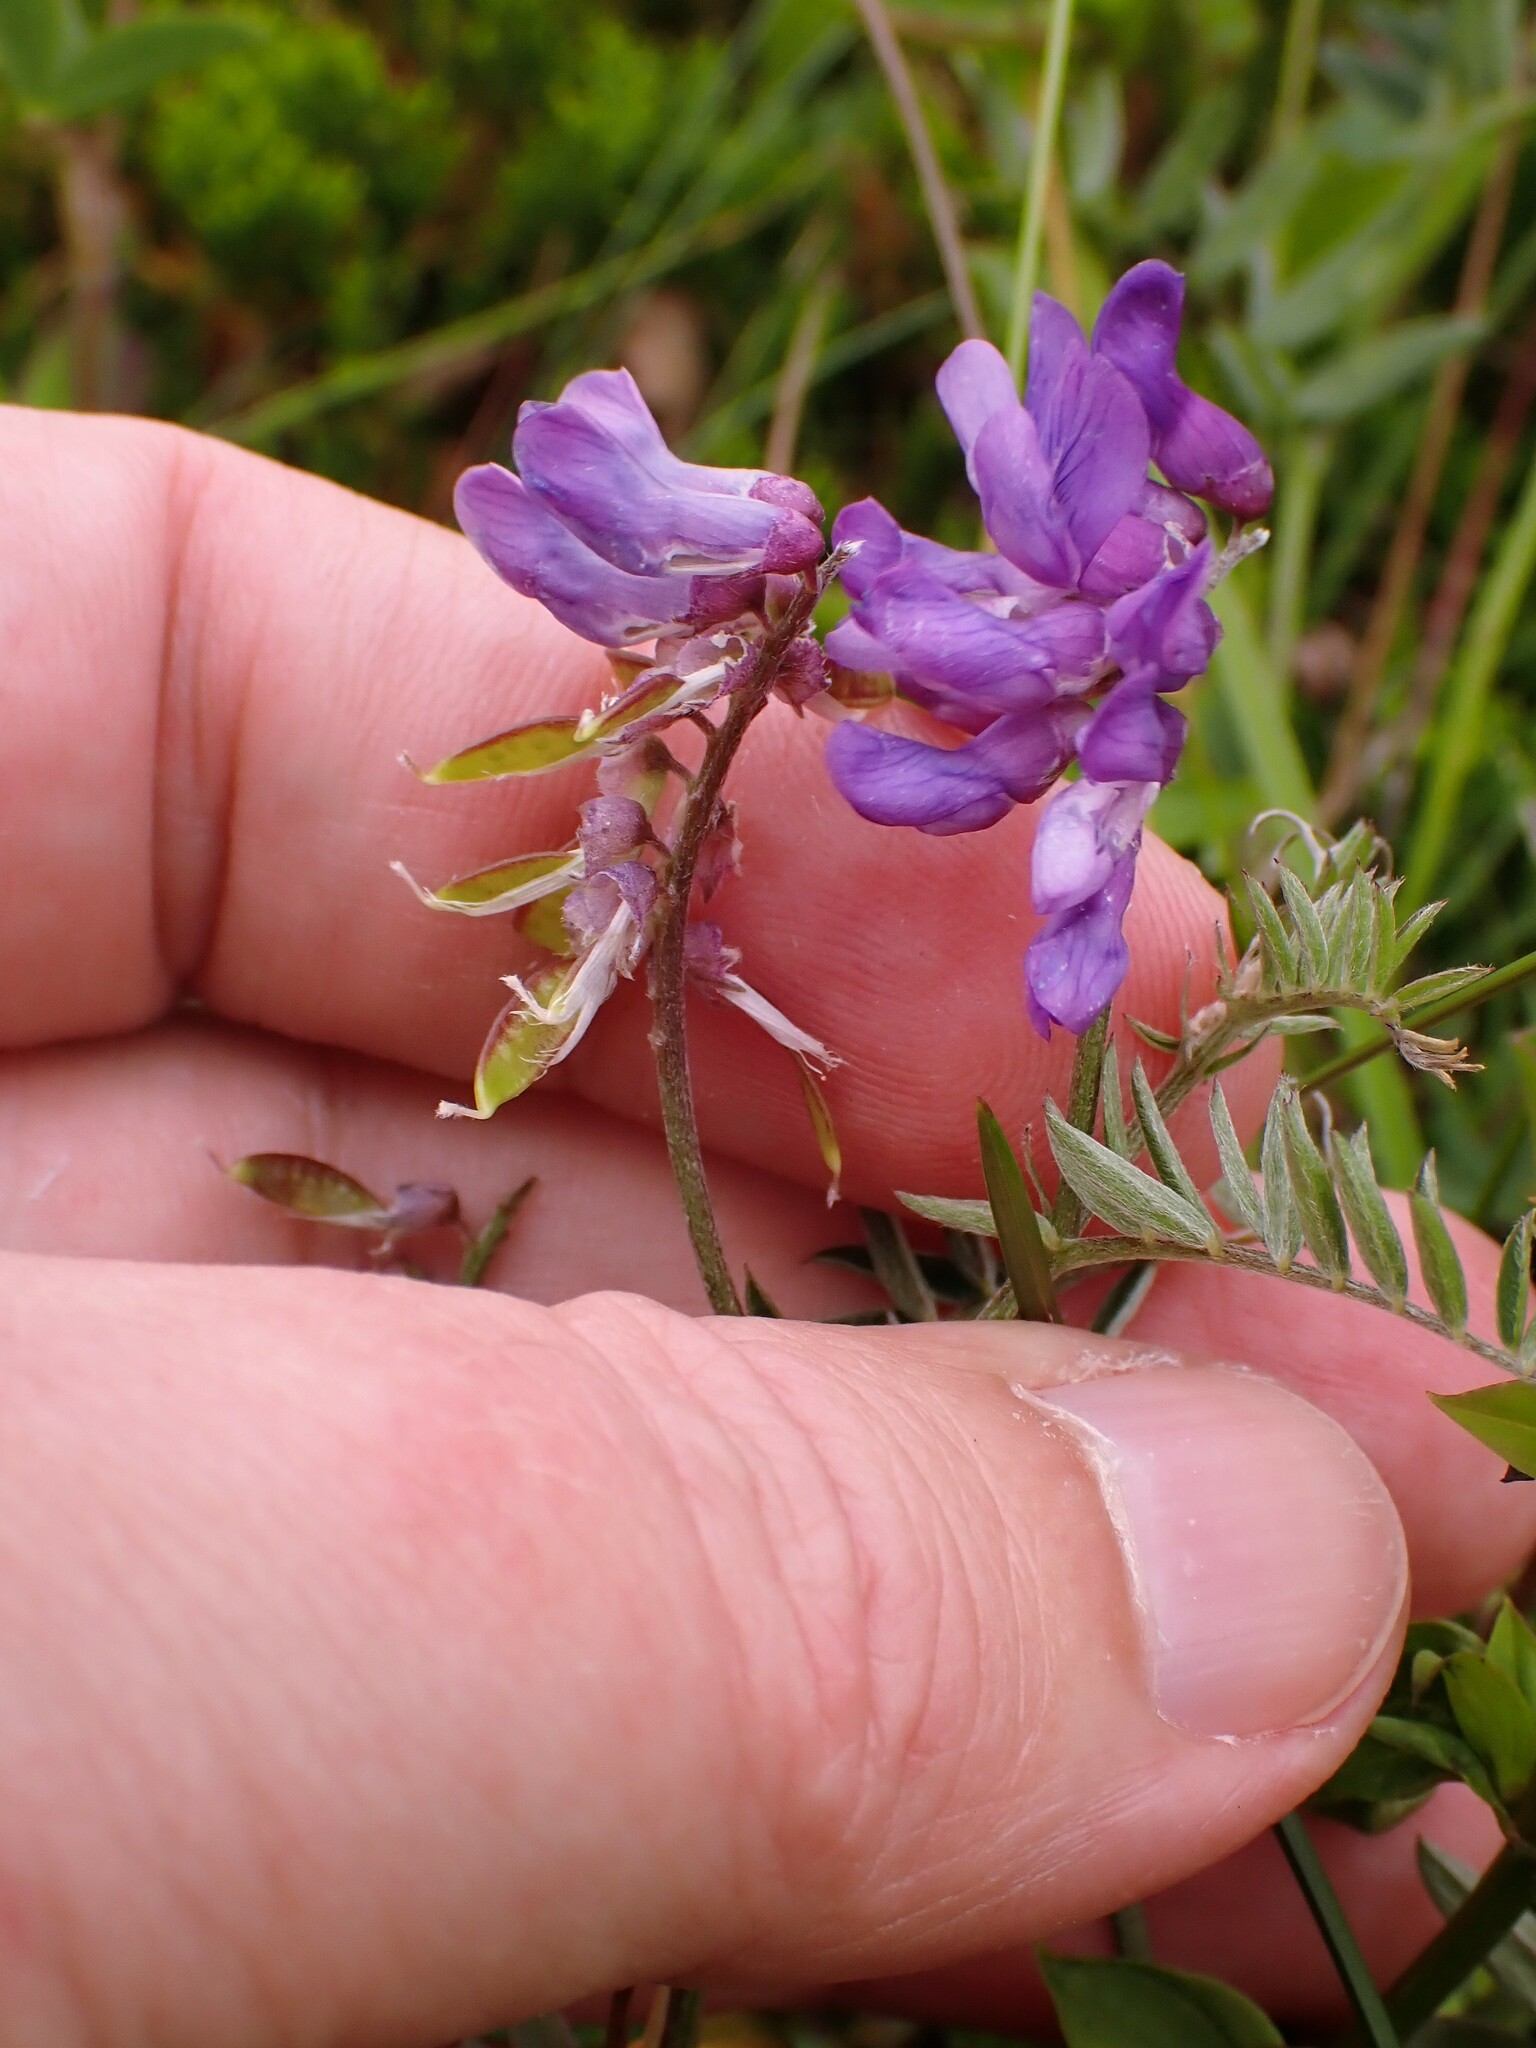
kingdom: Plantae
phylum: Tracheophyta
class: Magnoliopsida
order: Fabales
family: Fabaceae
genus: Vicia
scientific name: Vicia cracca
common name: Bird vetch
